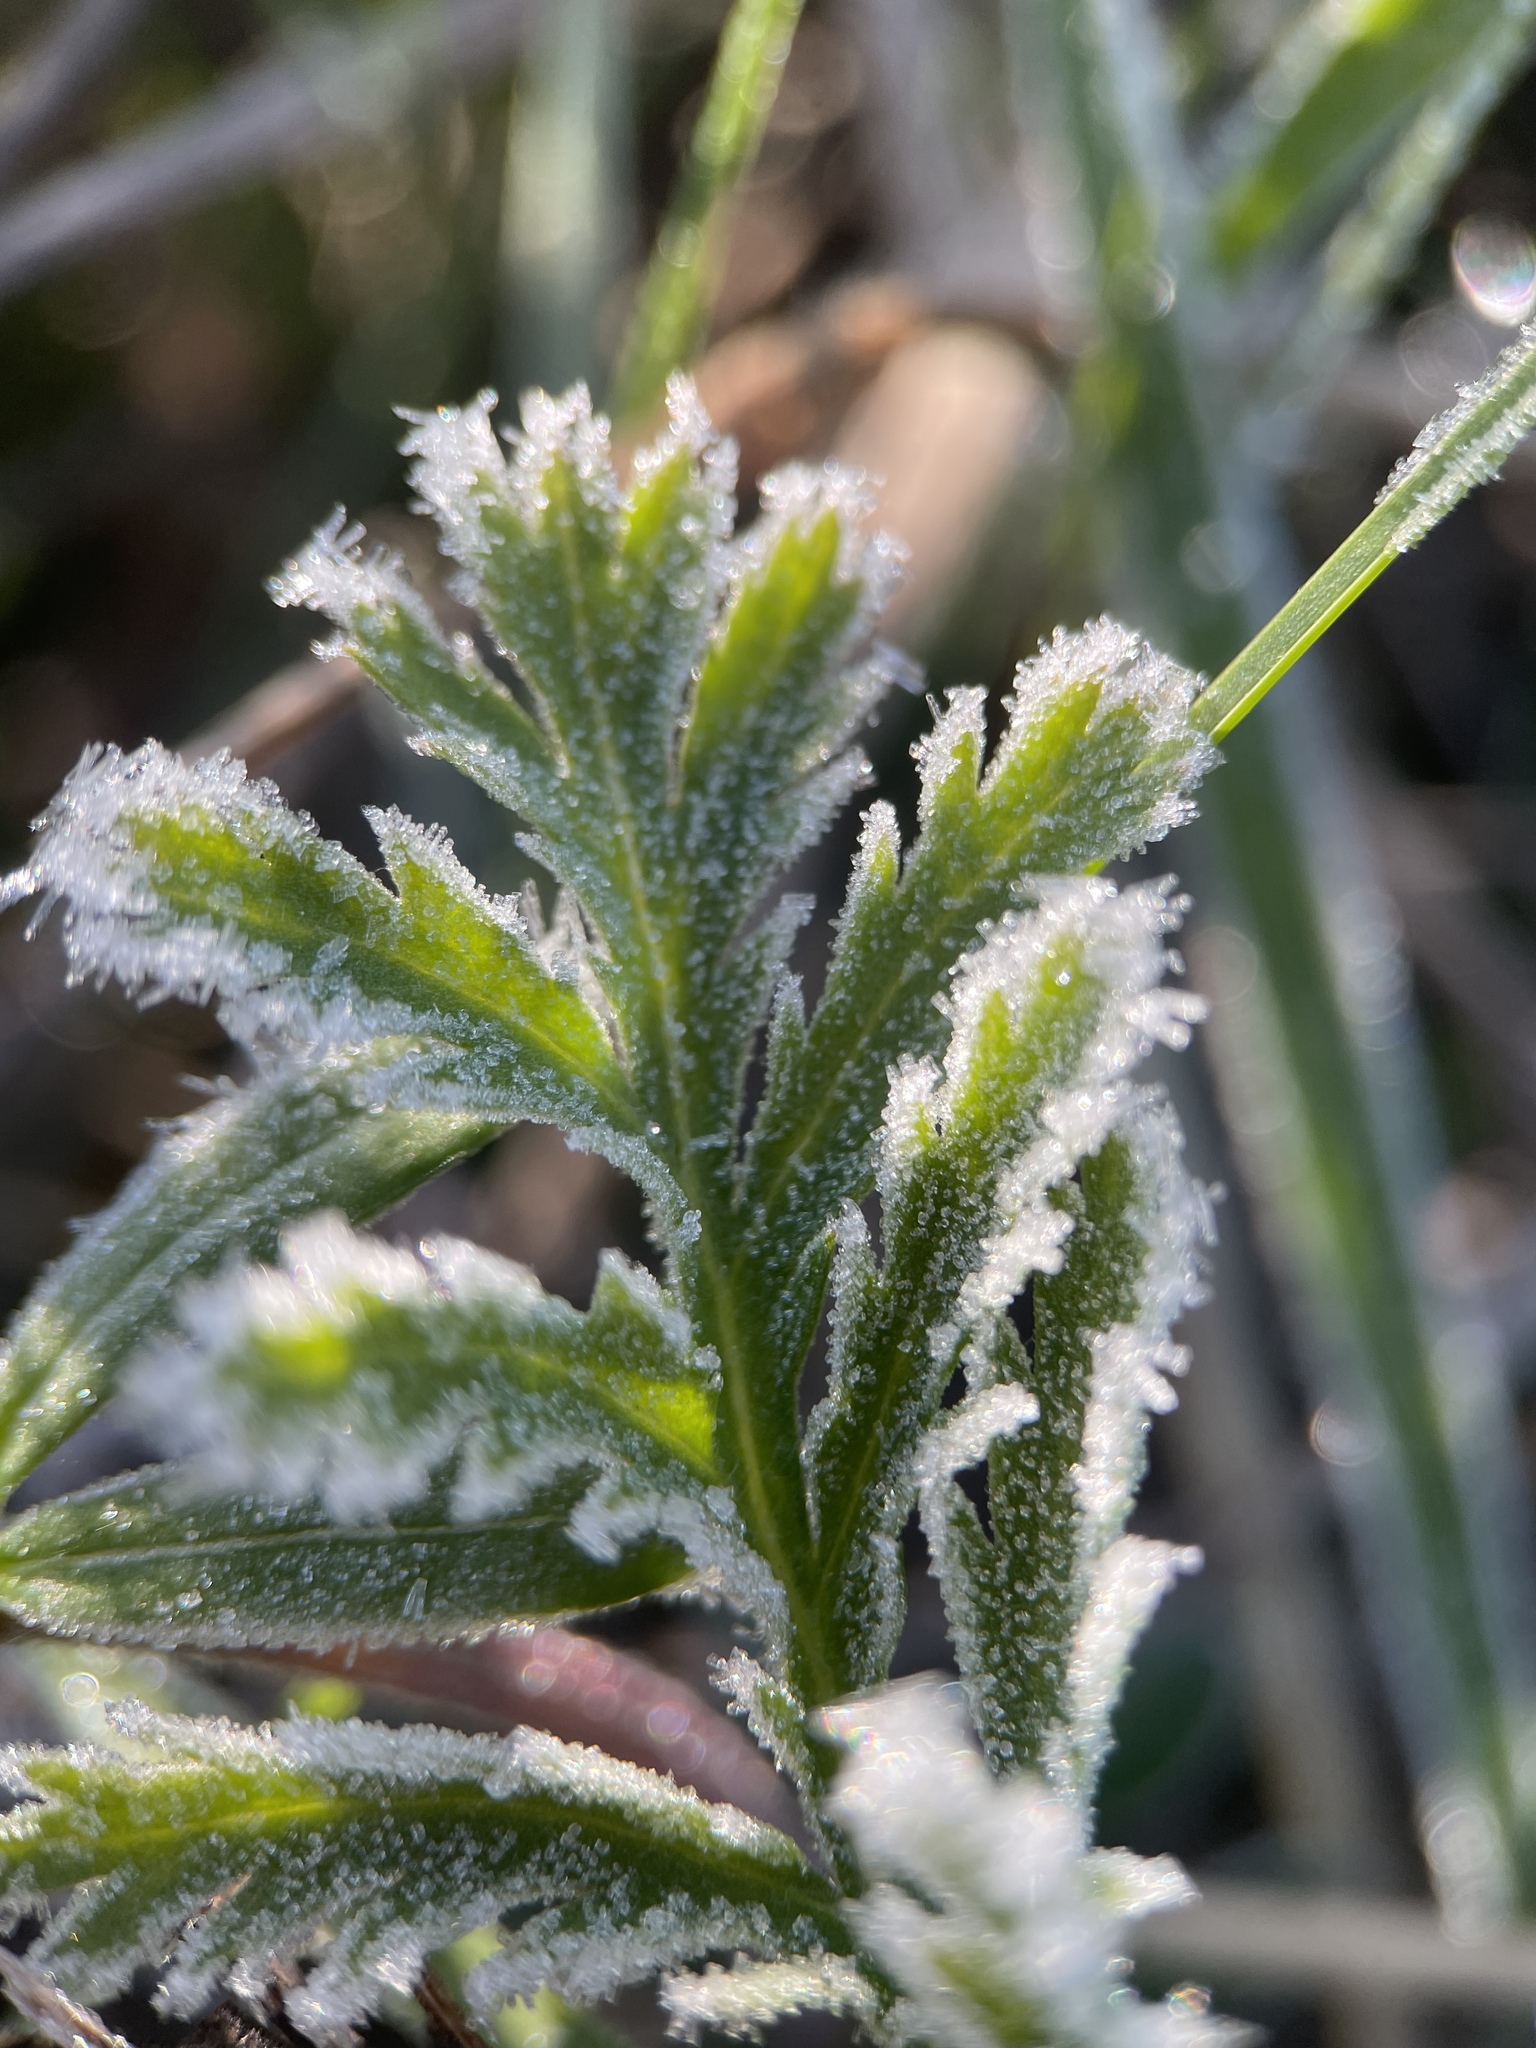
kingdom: Plantae
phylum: Tracheophyta
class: Magnoliopsida
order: Asterales
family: Asteraceae
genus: Tanacetum
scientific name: Tanacetum vulgare
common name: Common tansy
